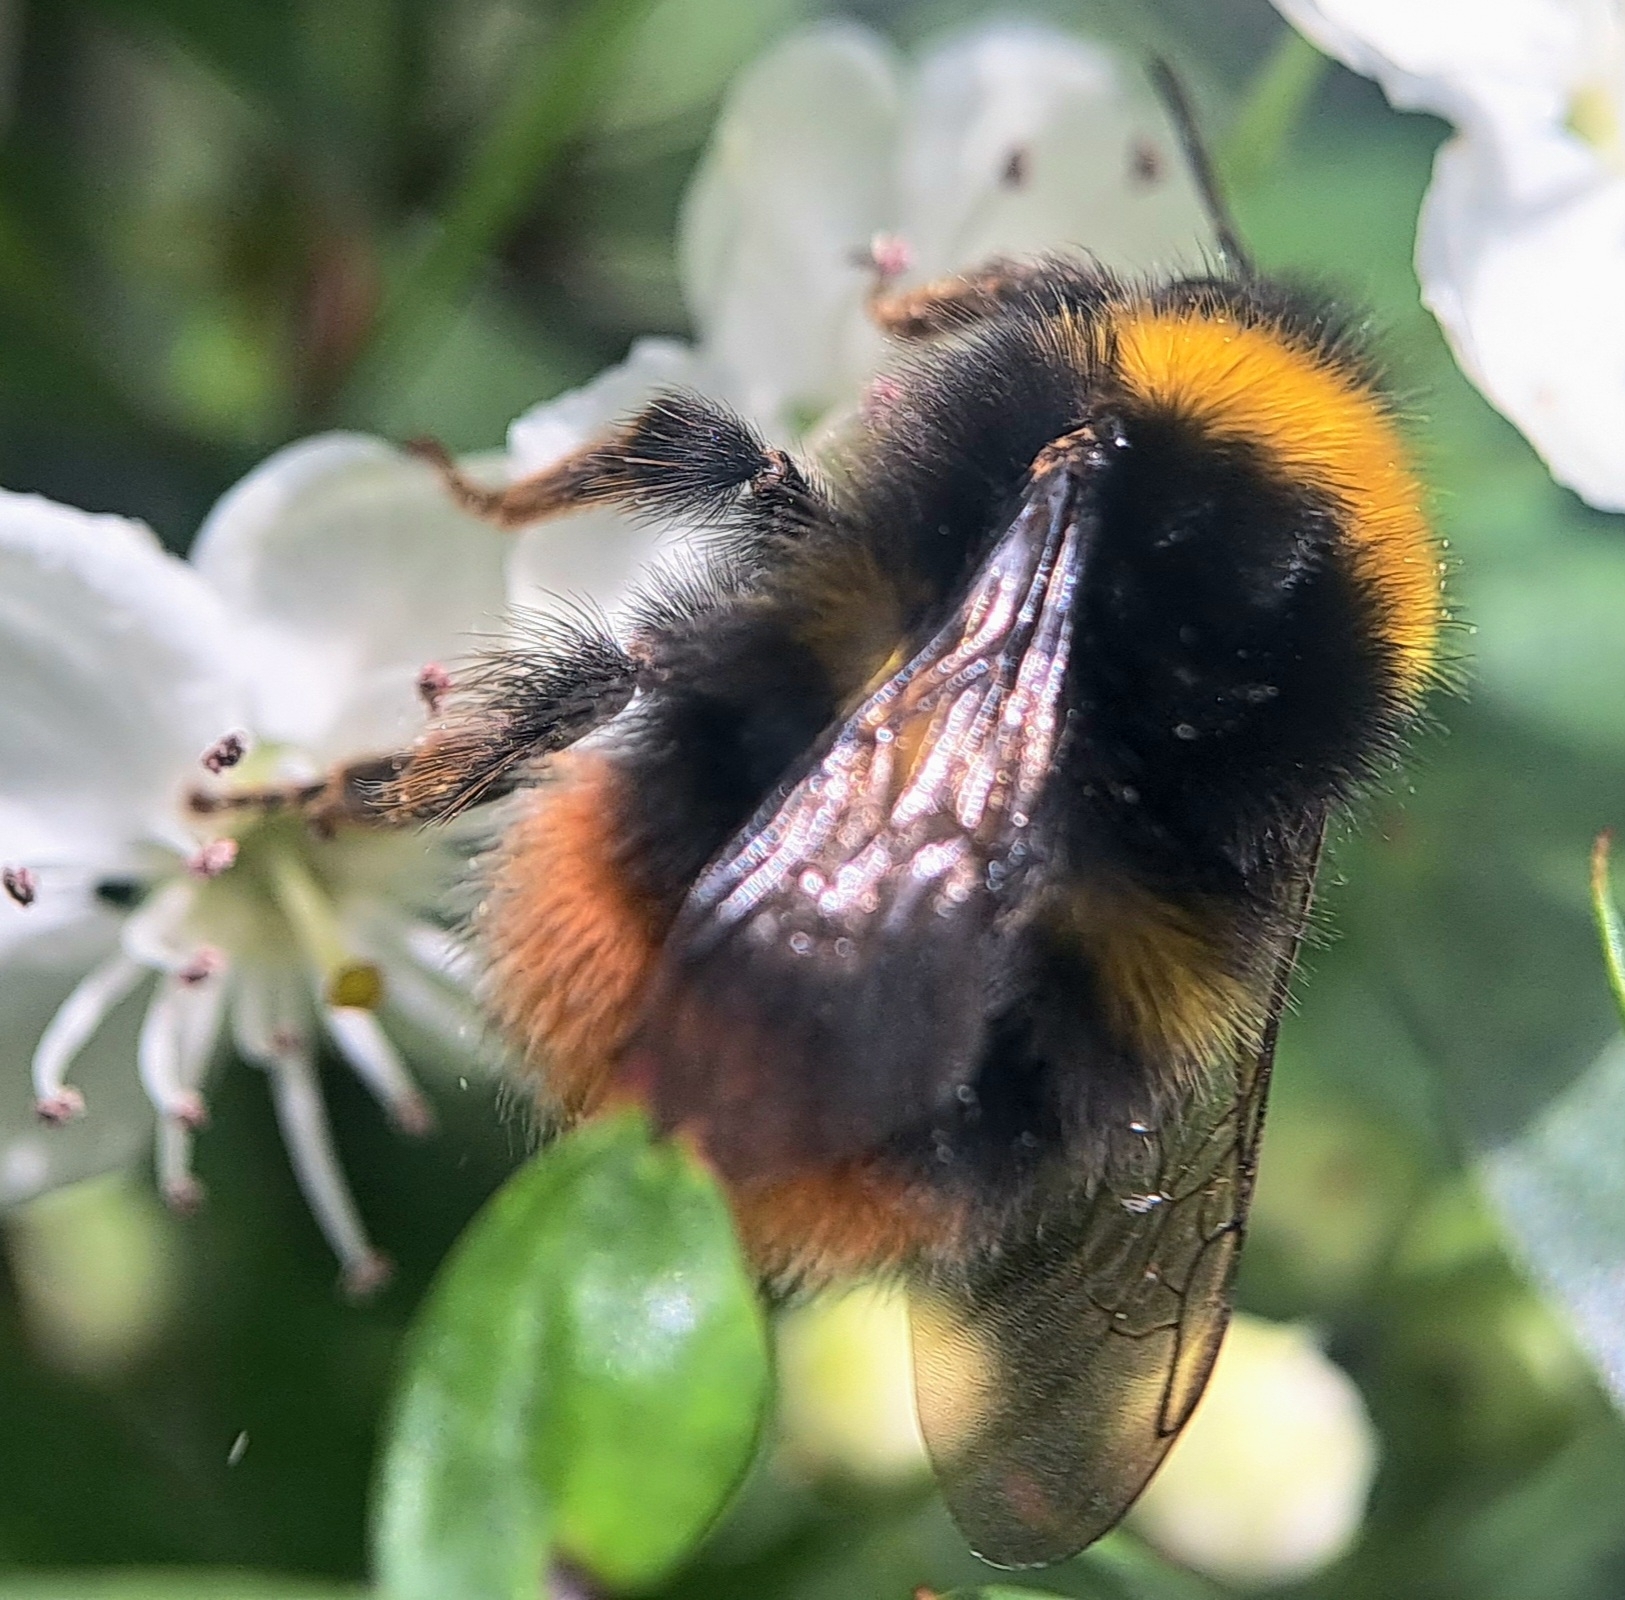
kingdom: Animalia
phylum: Arthropoda
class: Insecta
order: Hymenoptera
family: Apidae
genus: Bombus
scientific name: Bombus pratorum
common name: Early humble-bee
